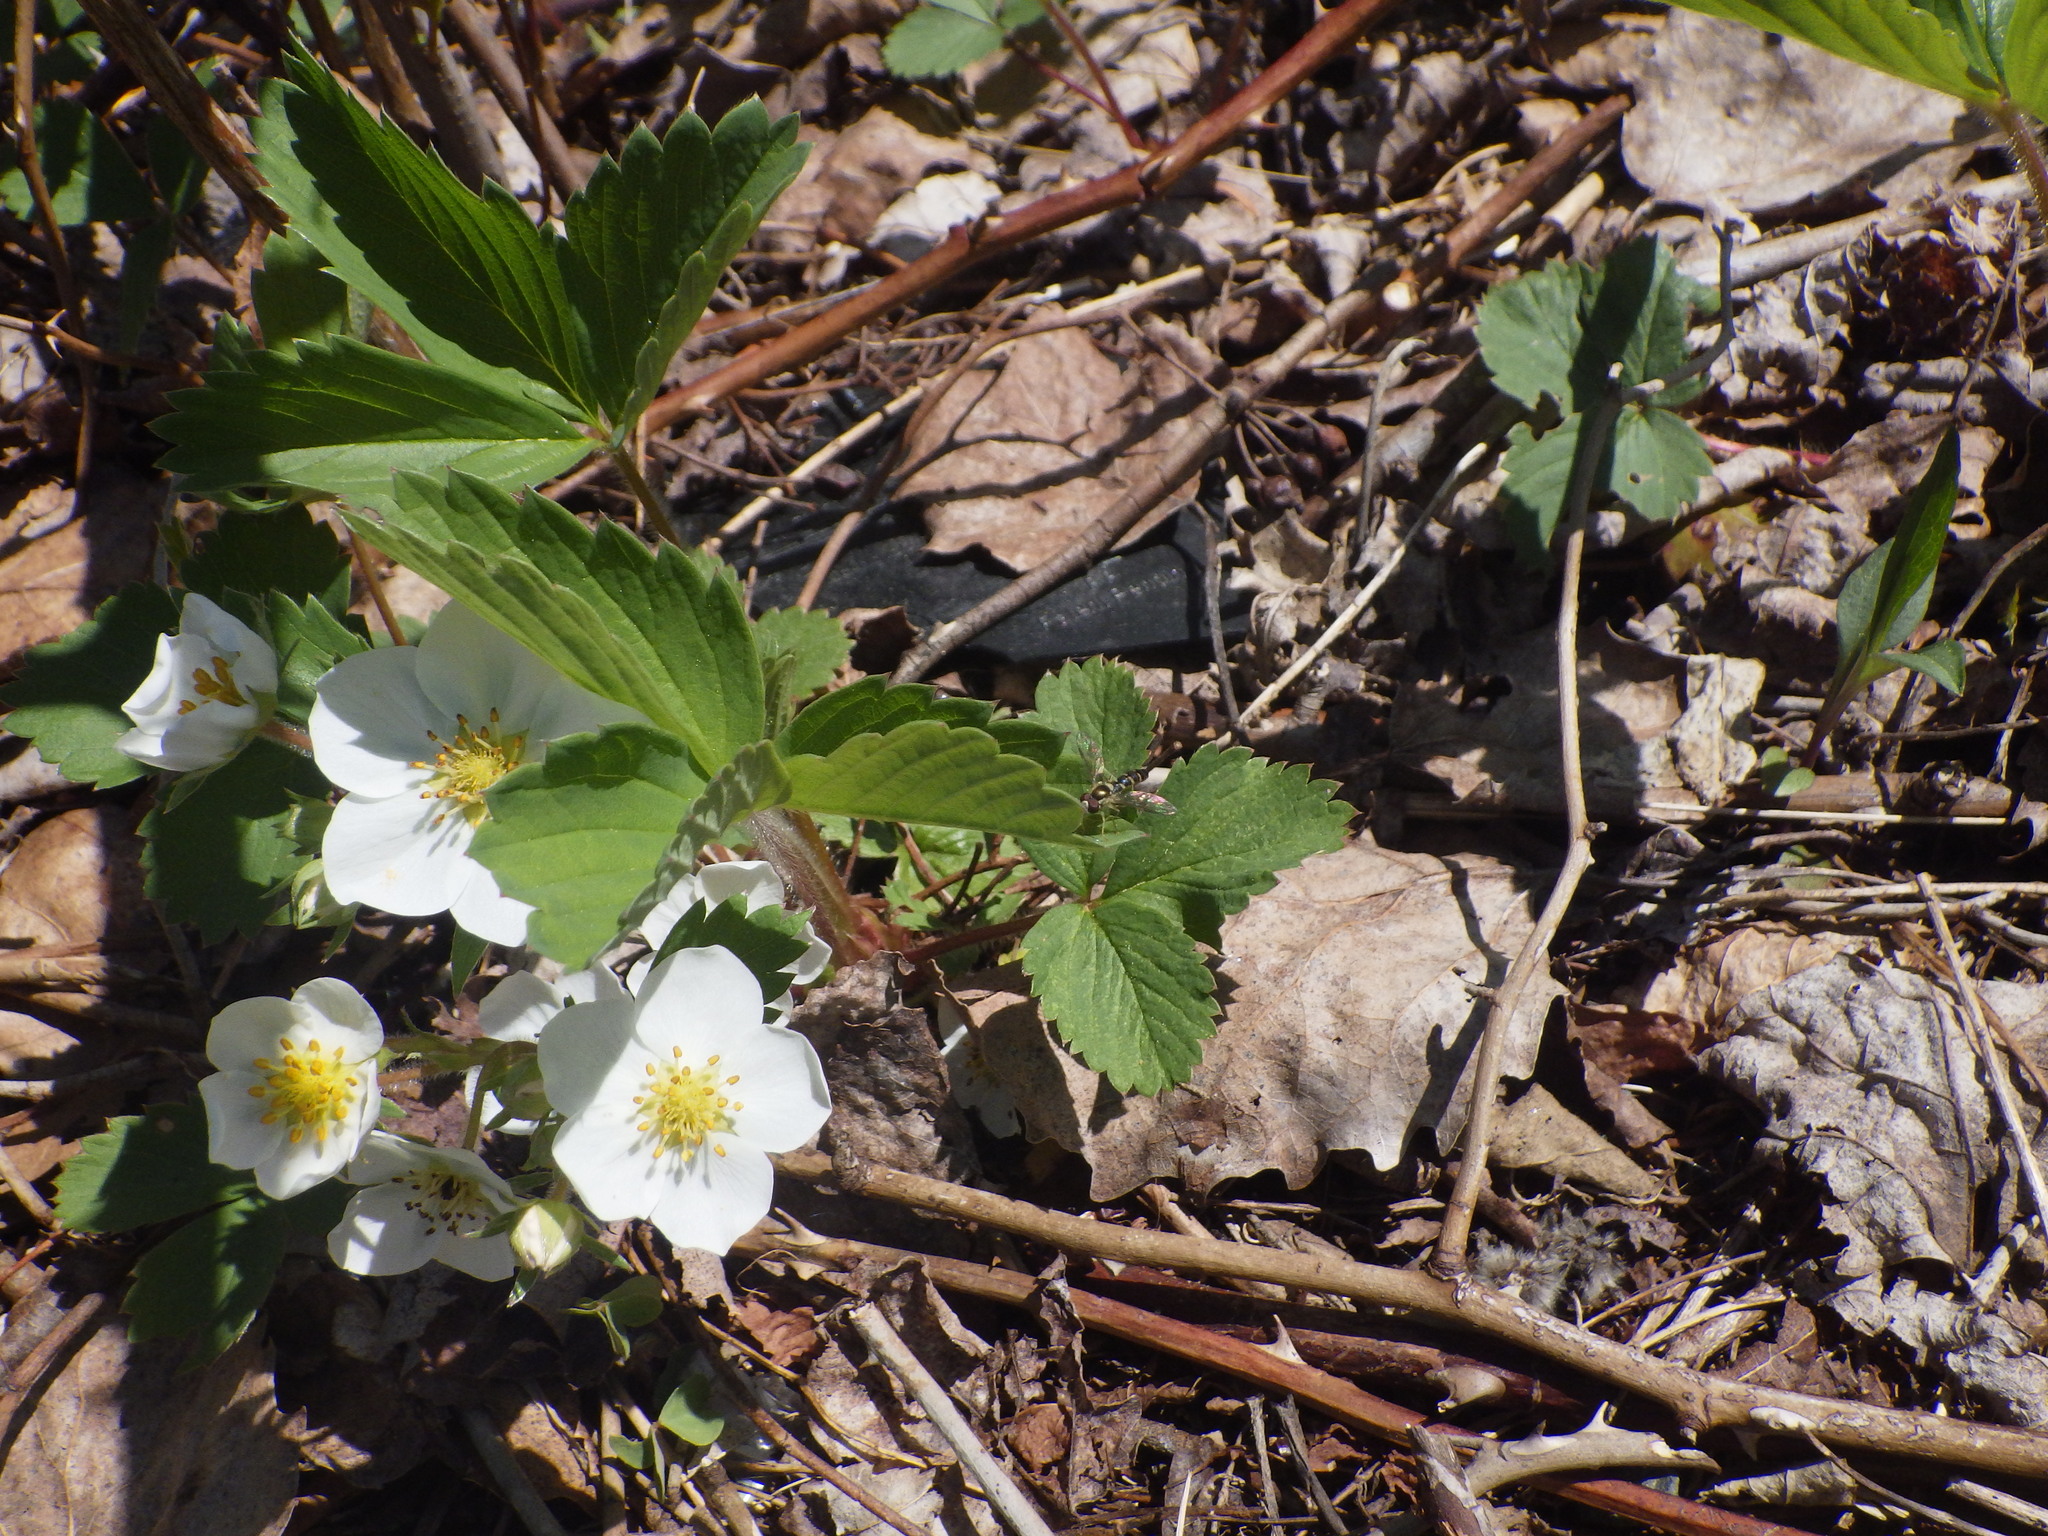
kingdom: Plantae
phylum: Tracheophyta
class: Magnoliopsida
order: Rosales
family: Rosaceae
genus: Fragaria
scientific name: Fragaria virginiana
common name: Thickleaved wild strawberry
